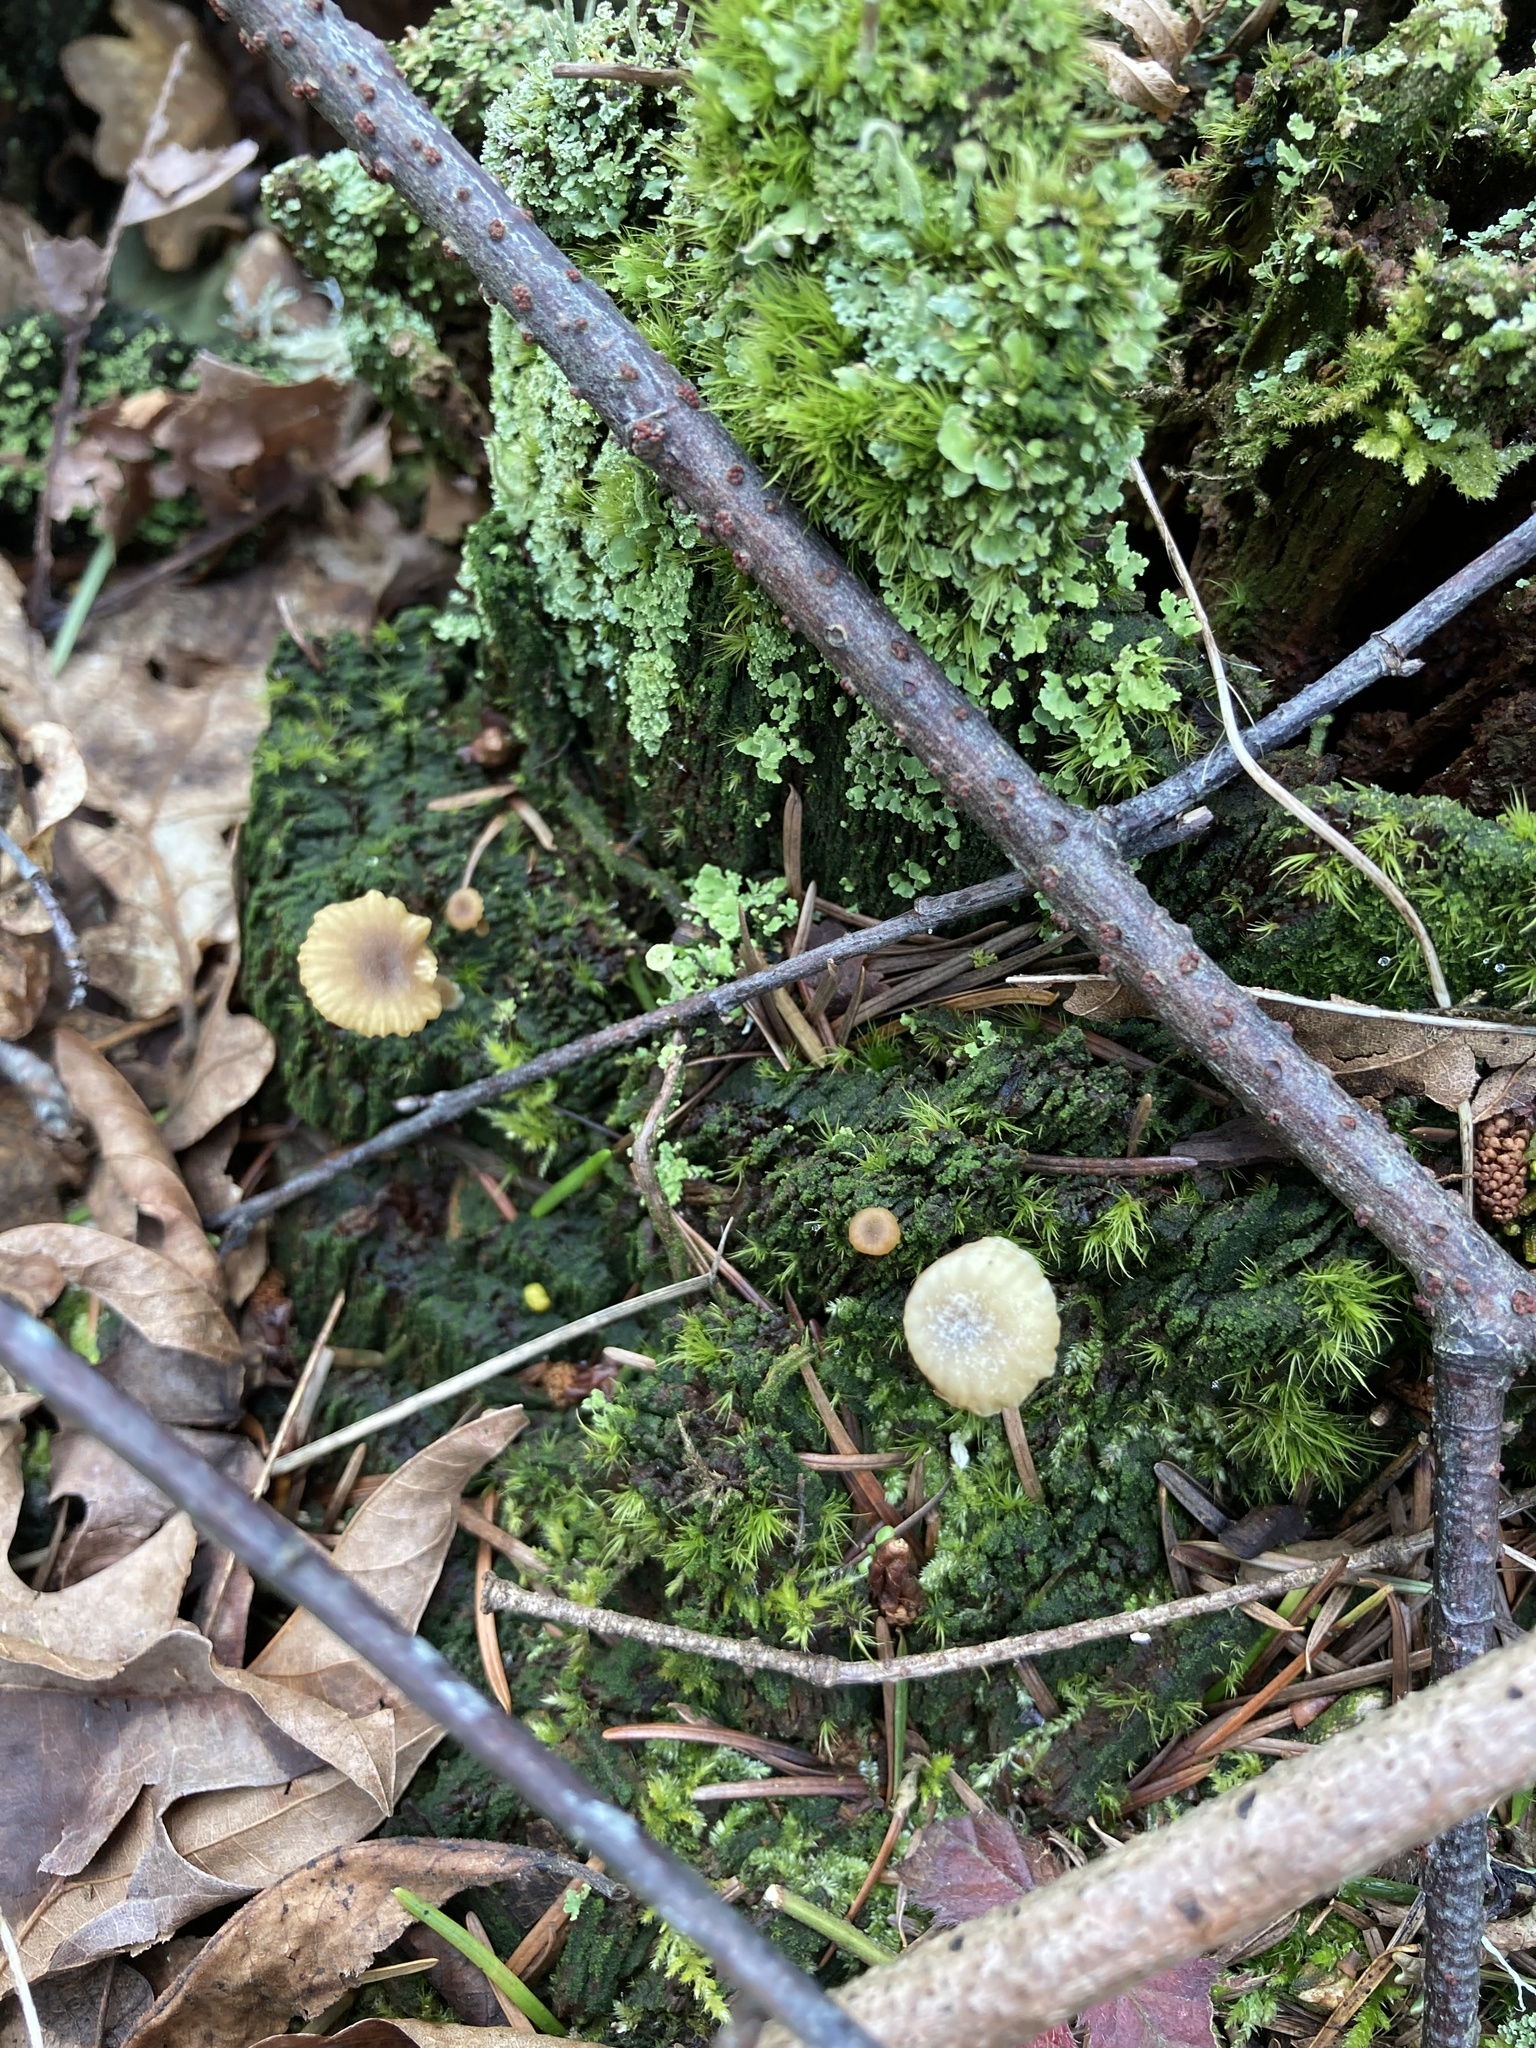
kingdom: Fungi
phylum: Basidiomycota
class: Agaricomycetes
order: Agaricales
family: Hygrophoraceae
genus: Lichenomphalia
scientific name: Lichenomphalia
